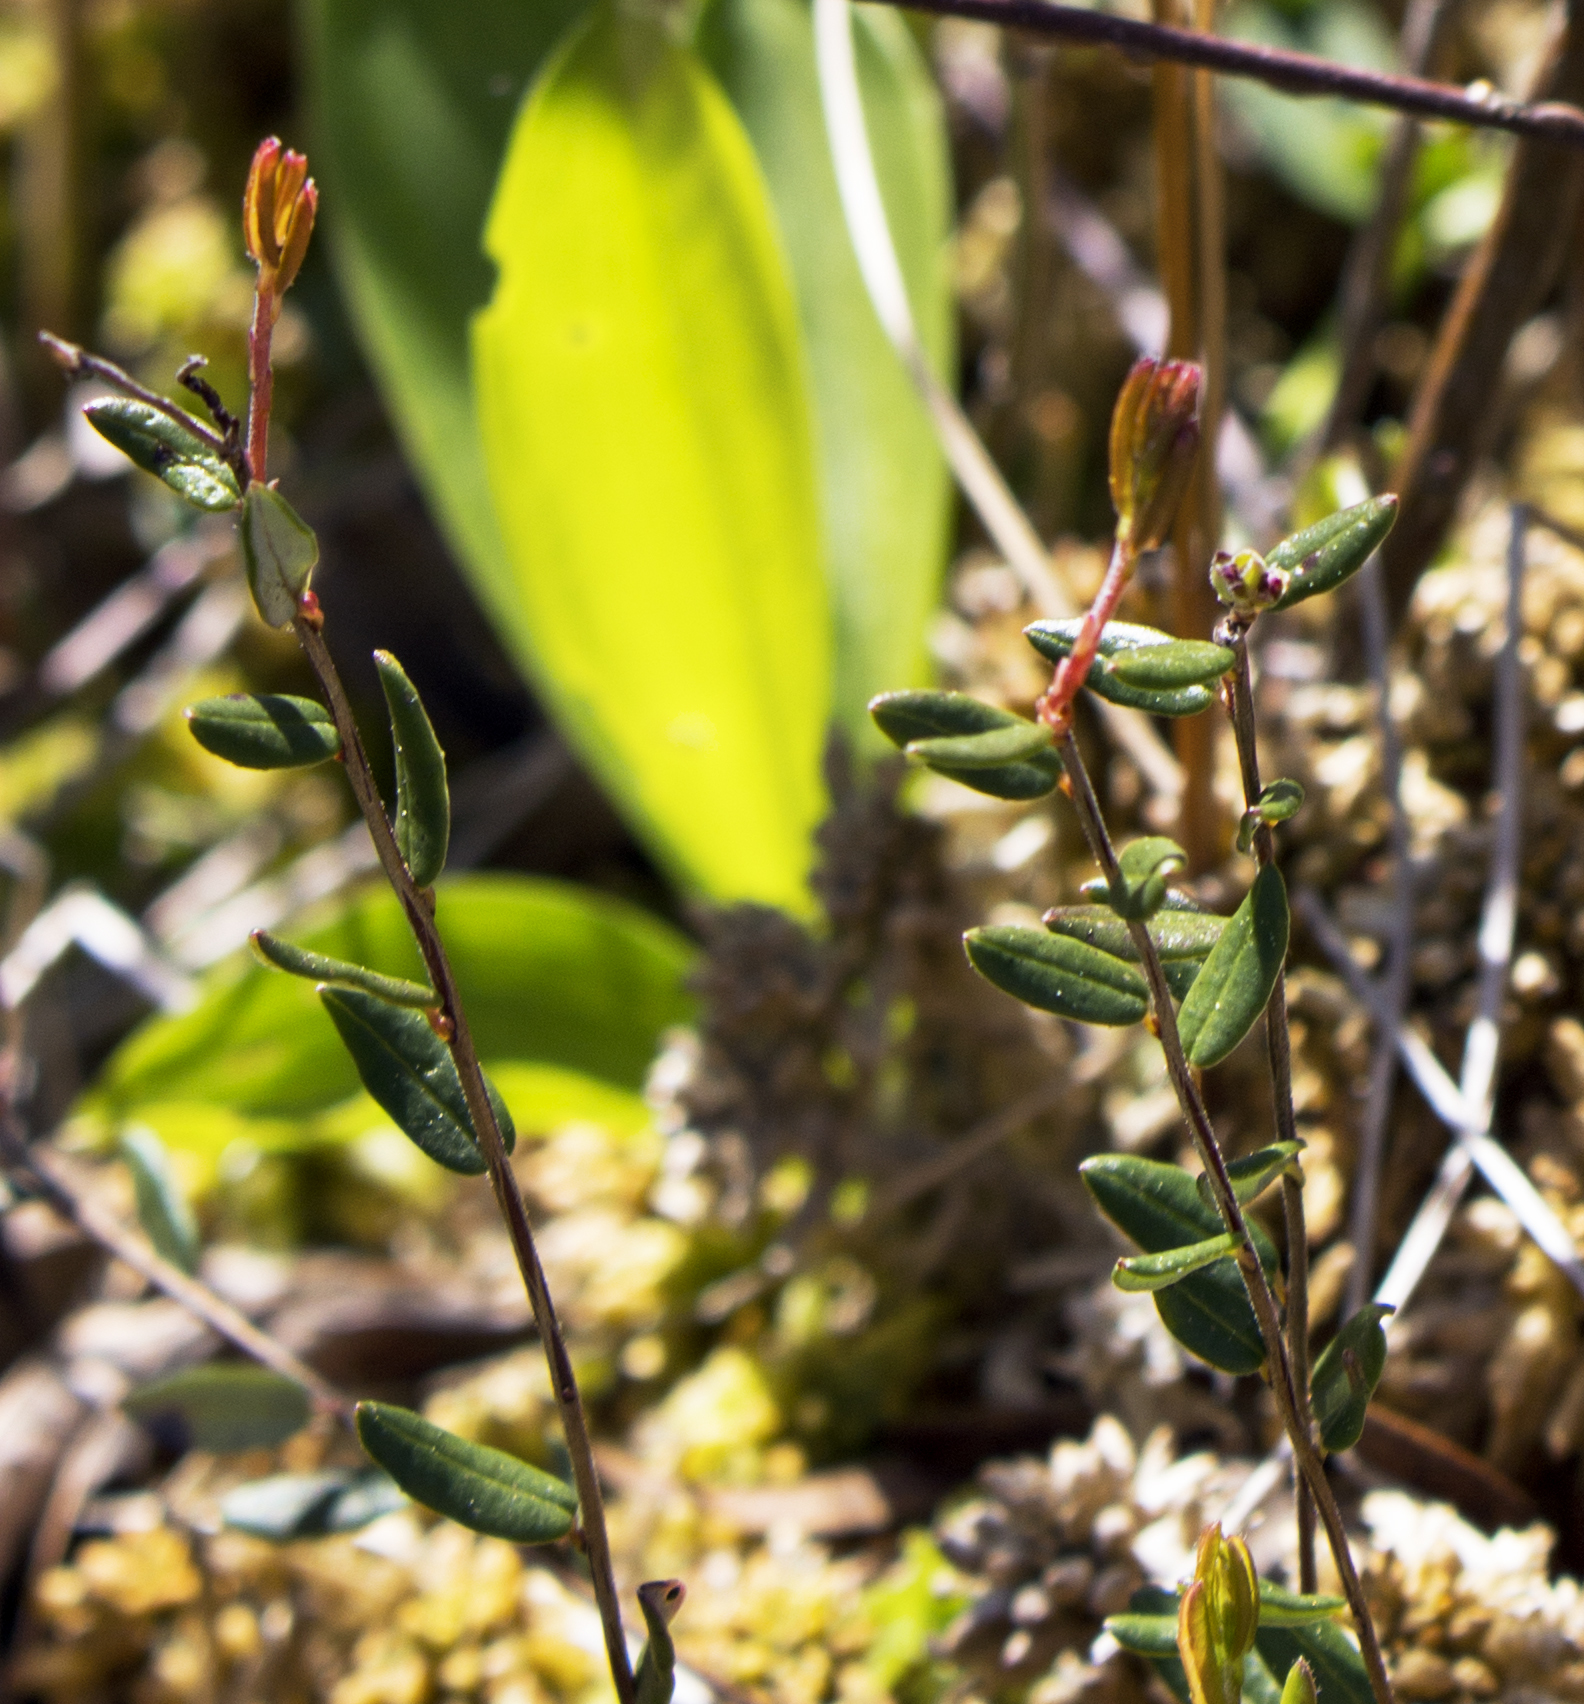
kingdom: Plantae
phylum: Tracheophyta
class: Magnoliopsida
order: Ericales
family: Ericaceae
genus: Vaccinium
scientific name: Vaccinium oxycoccos
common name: Cranberry
